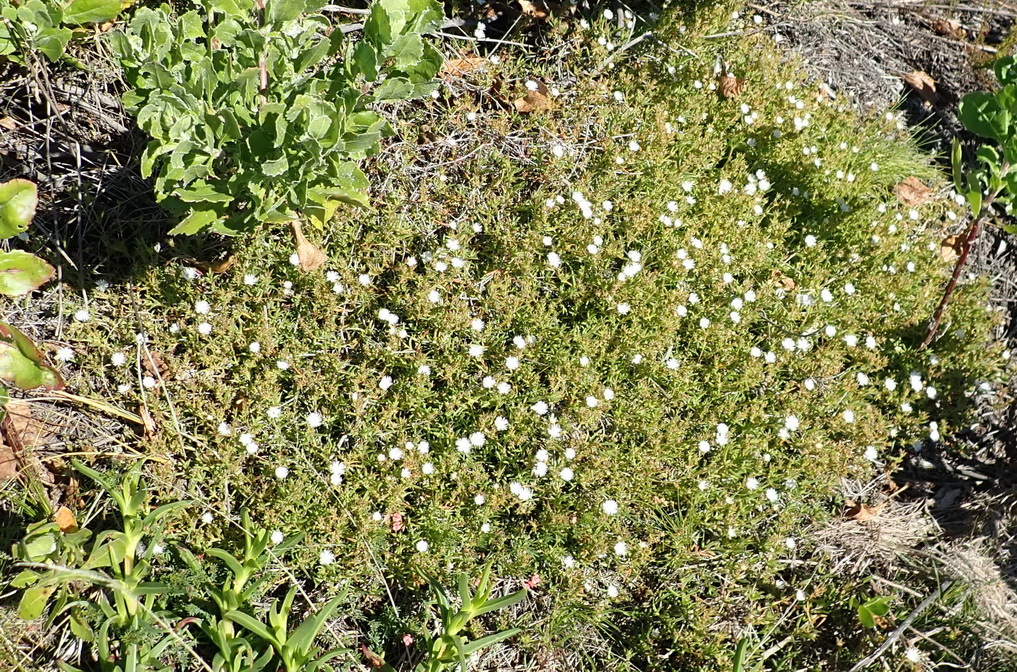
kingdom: Plantae
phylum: Tracheophyta
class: Magnoliopsida
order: Caryophyllales
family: Aizoaceae
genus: Delosperma
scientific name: Delosperma inconspicuum
